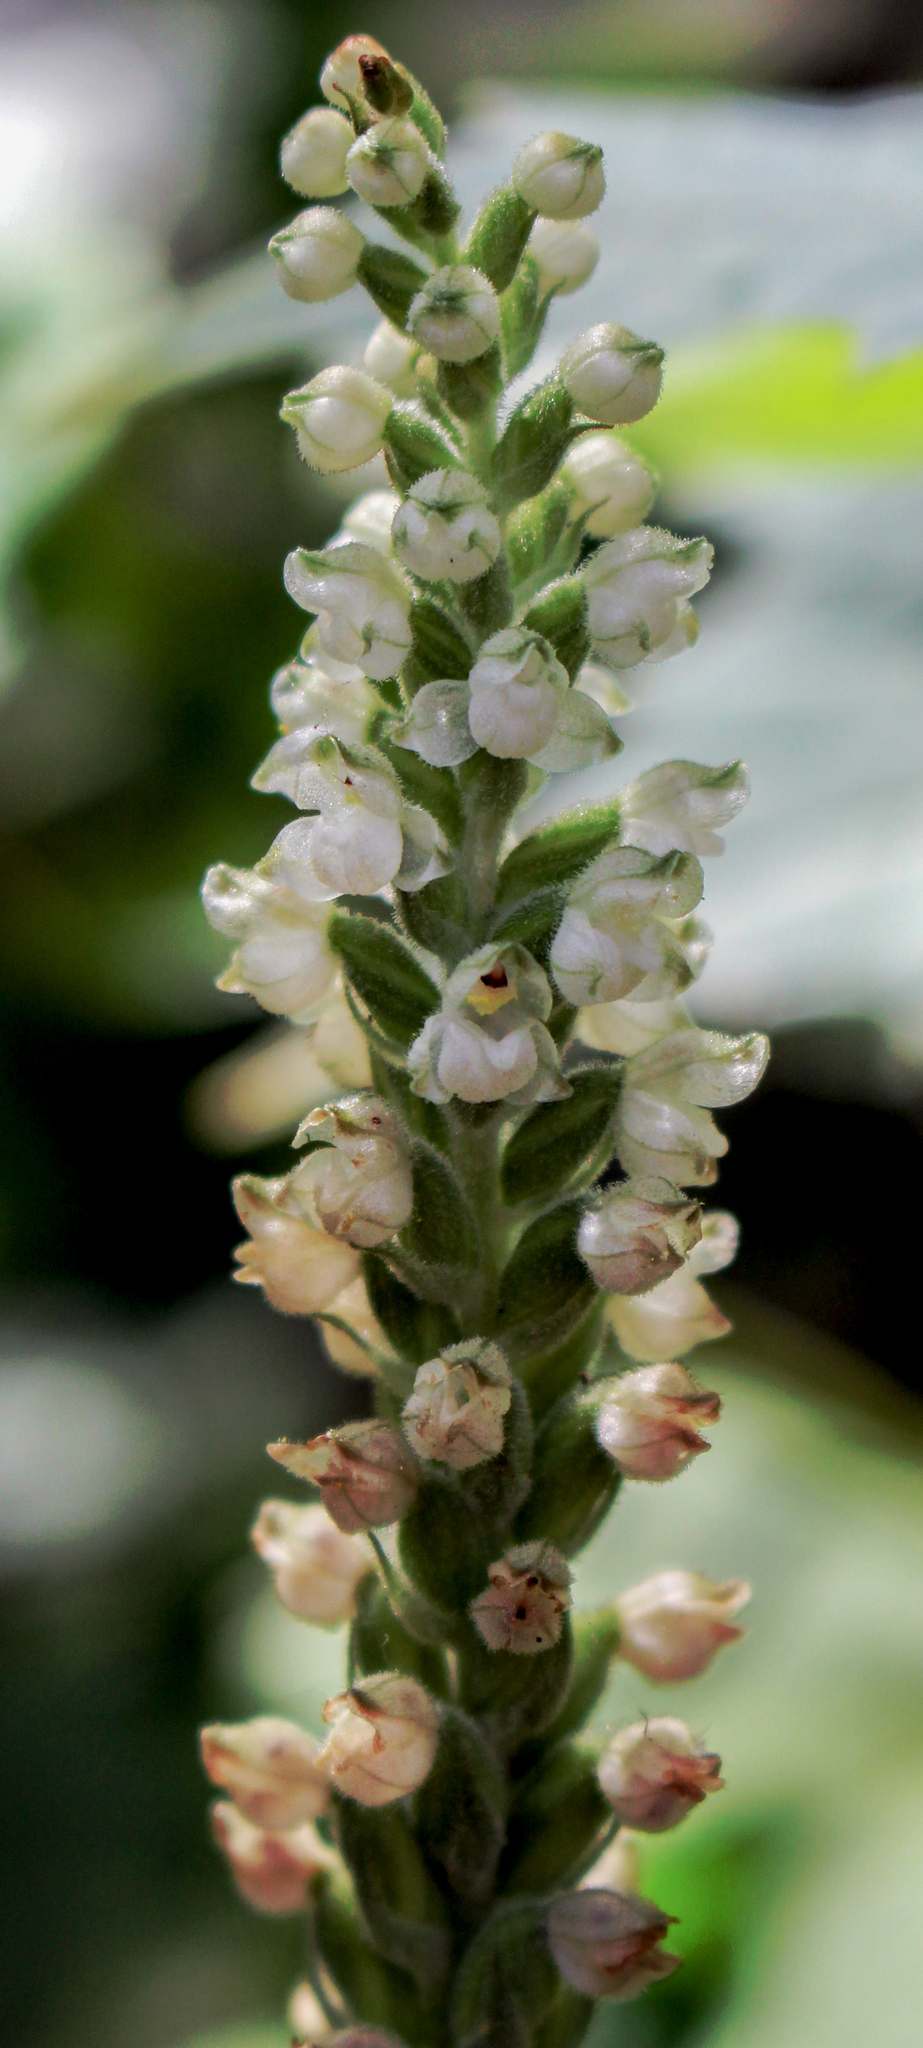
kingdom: Plantae
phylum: Tracheophyta
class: Liliopsida
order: Asparagales
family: Orchidaceae
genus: Goodyera
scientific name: Goodyera pubescens
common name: Downy rattlesnake-plantain
